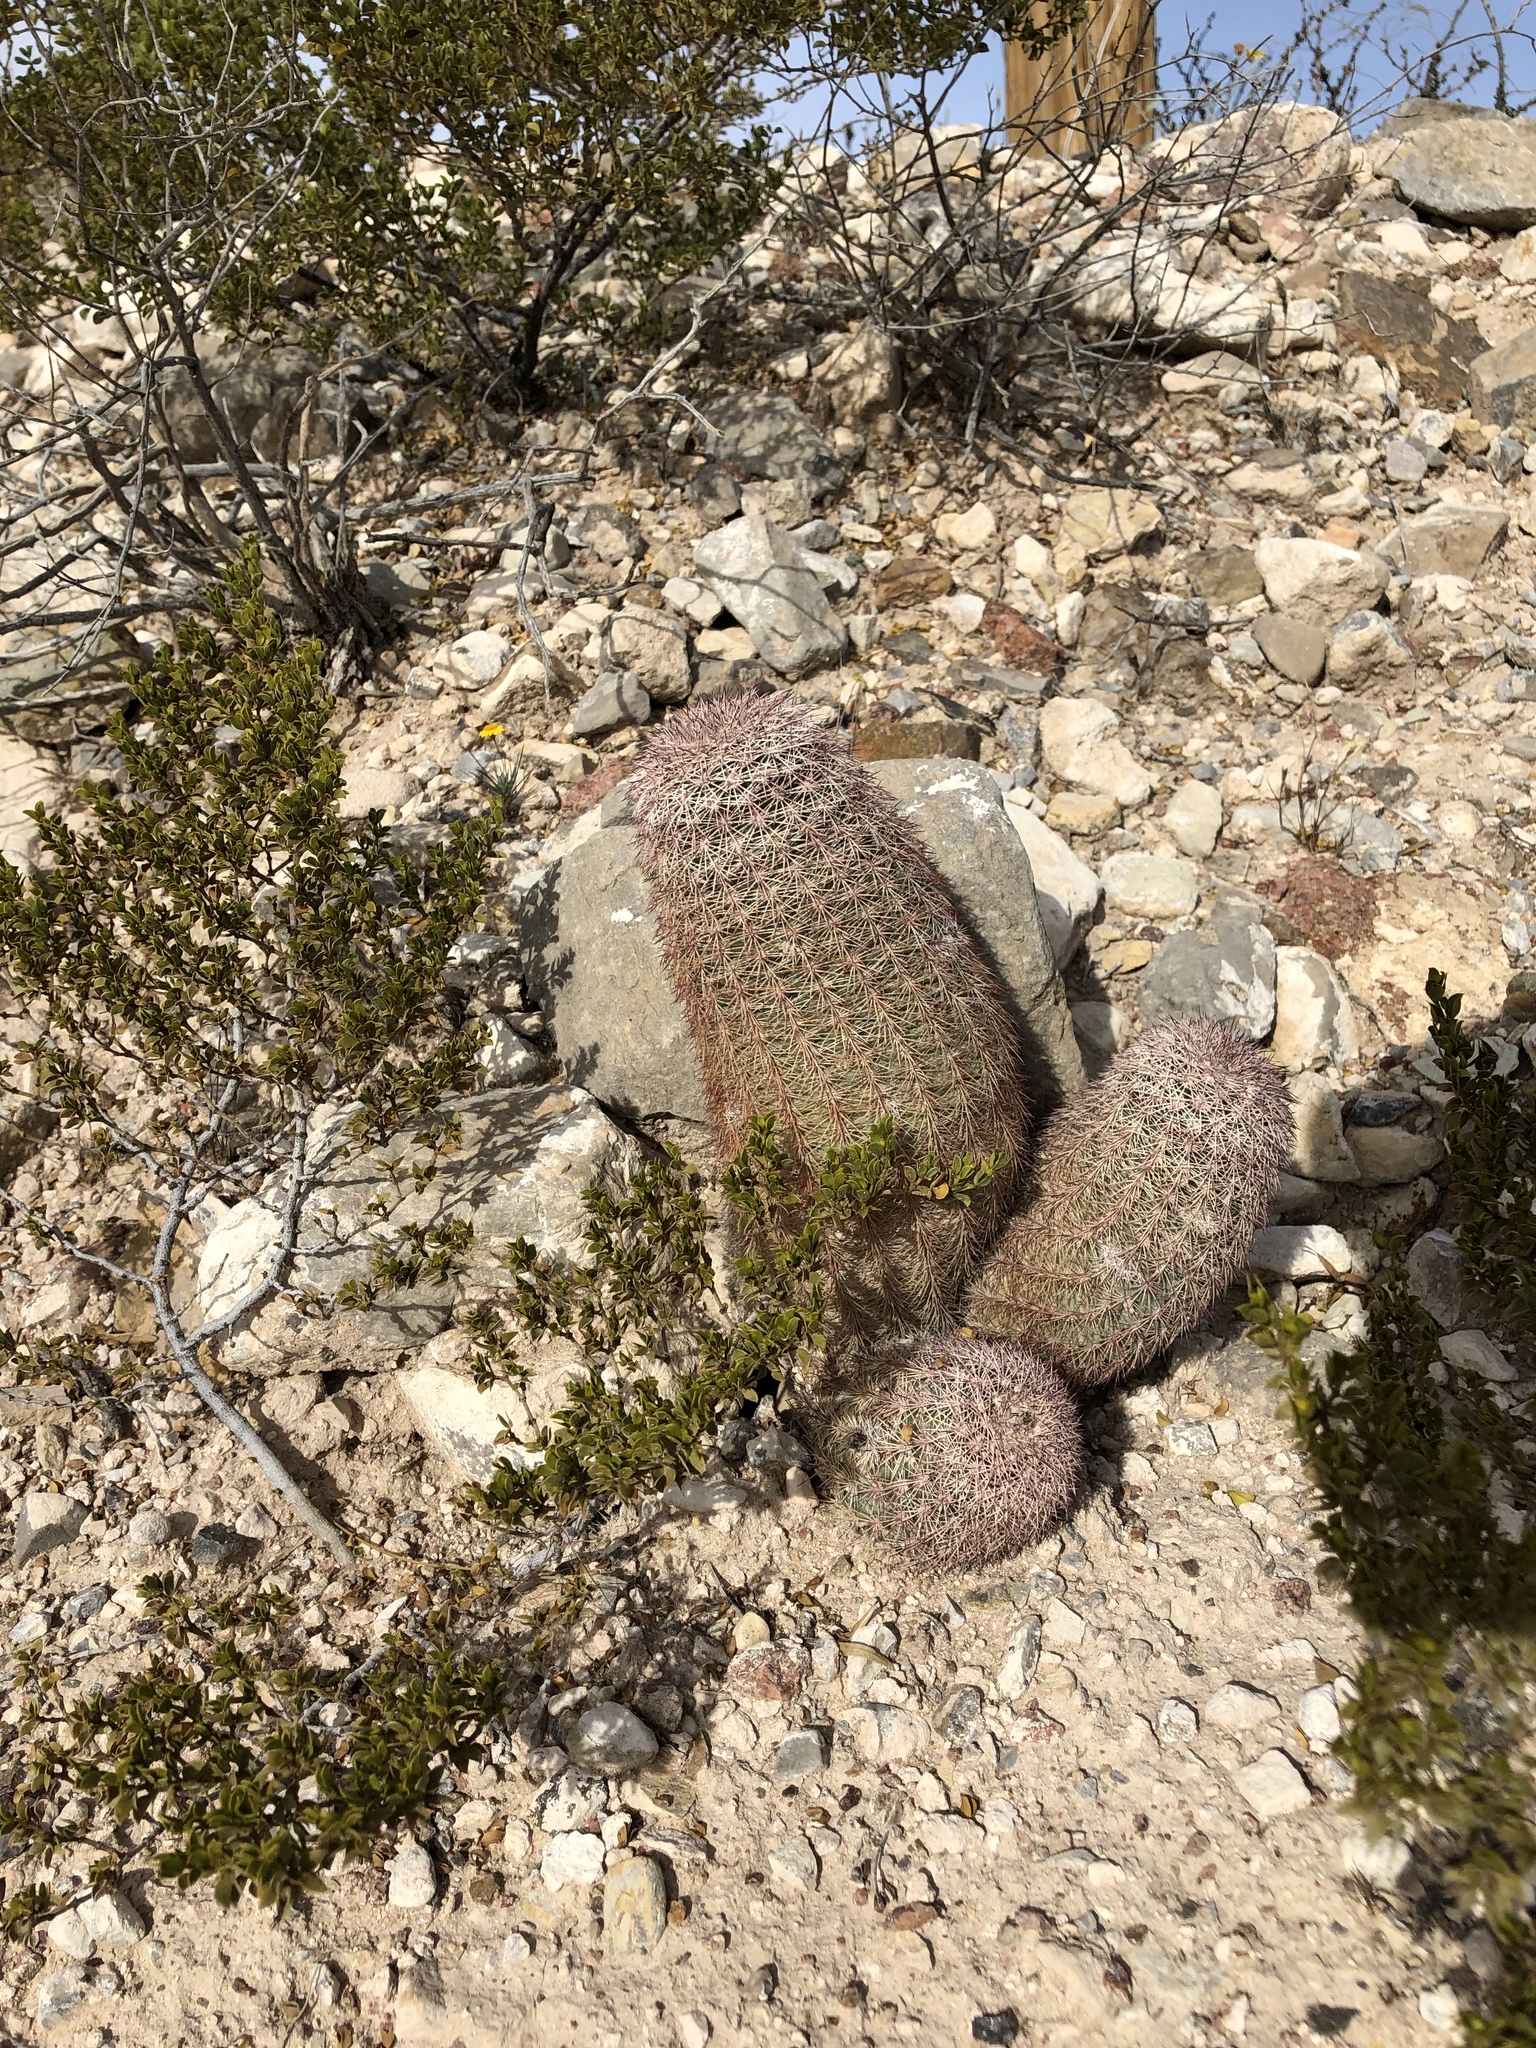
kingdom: Plantae
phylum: Tracheophyta
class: Magnoliopsida
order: Caryophyllales
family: Cactaceae
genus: Echinocereus
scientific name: Echinocereus dasyacanthus
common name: Spiny hedgehog cactus
